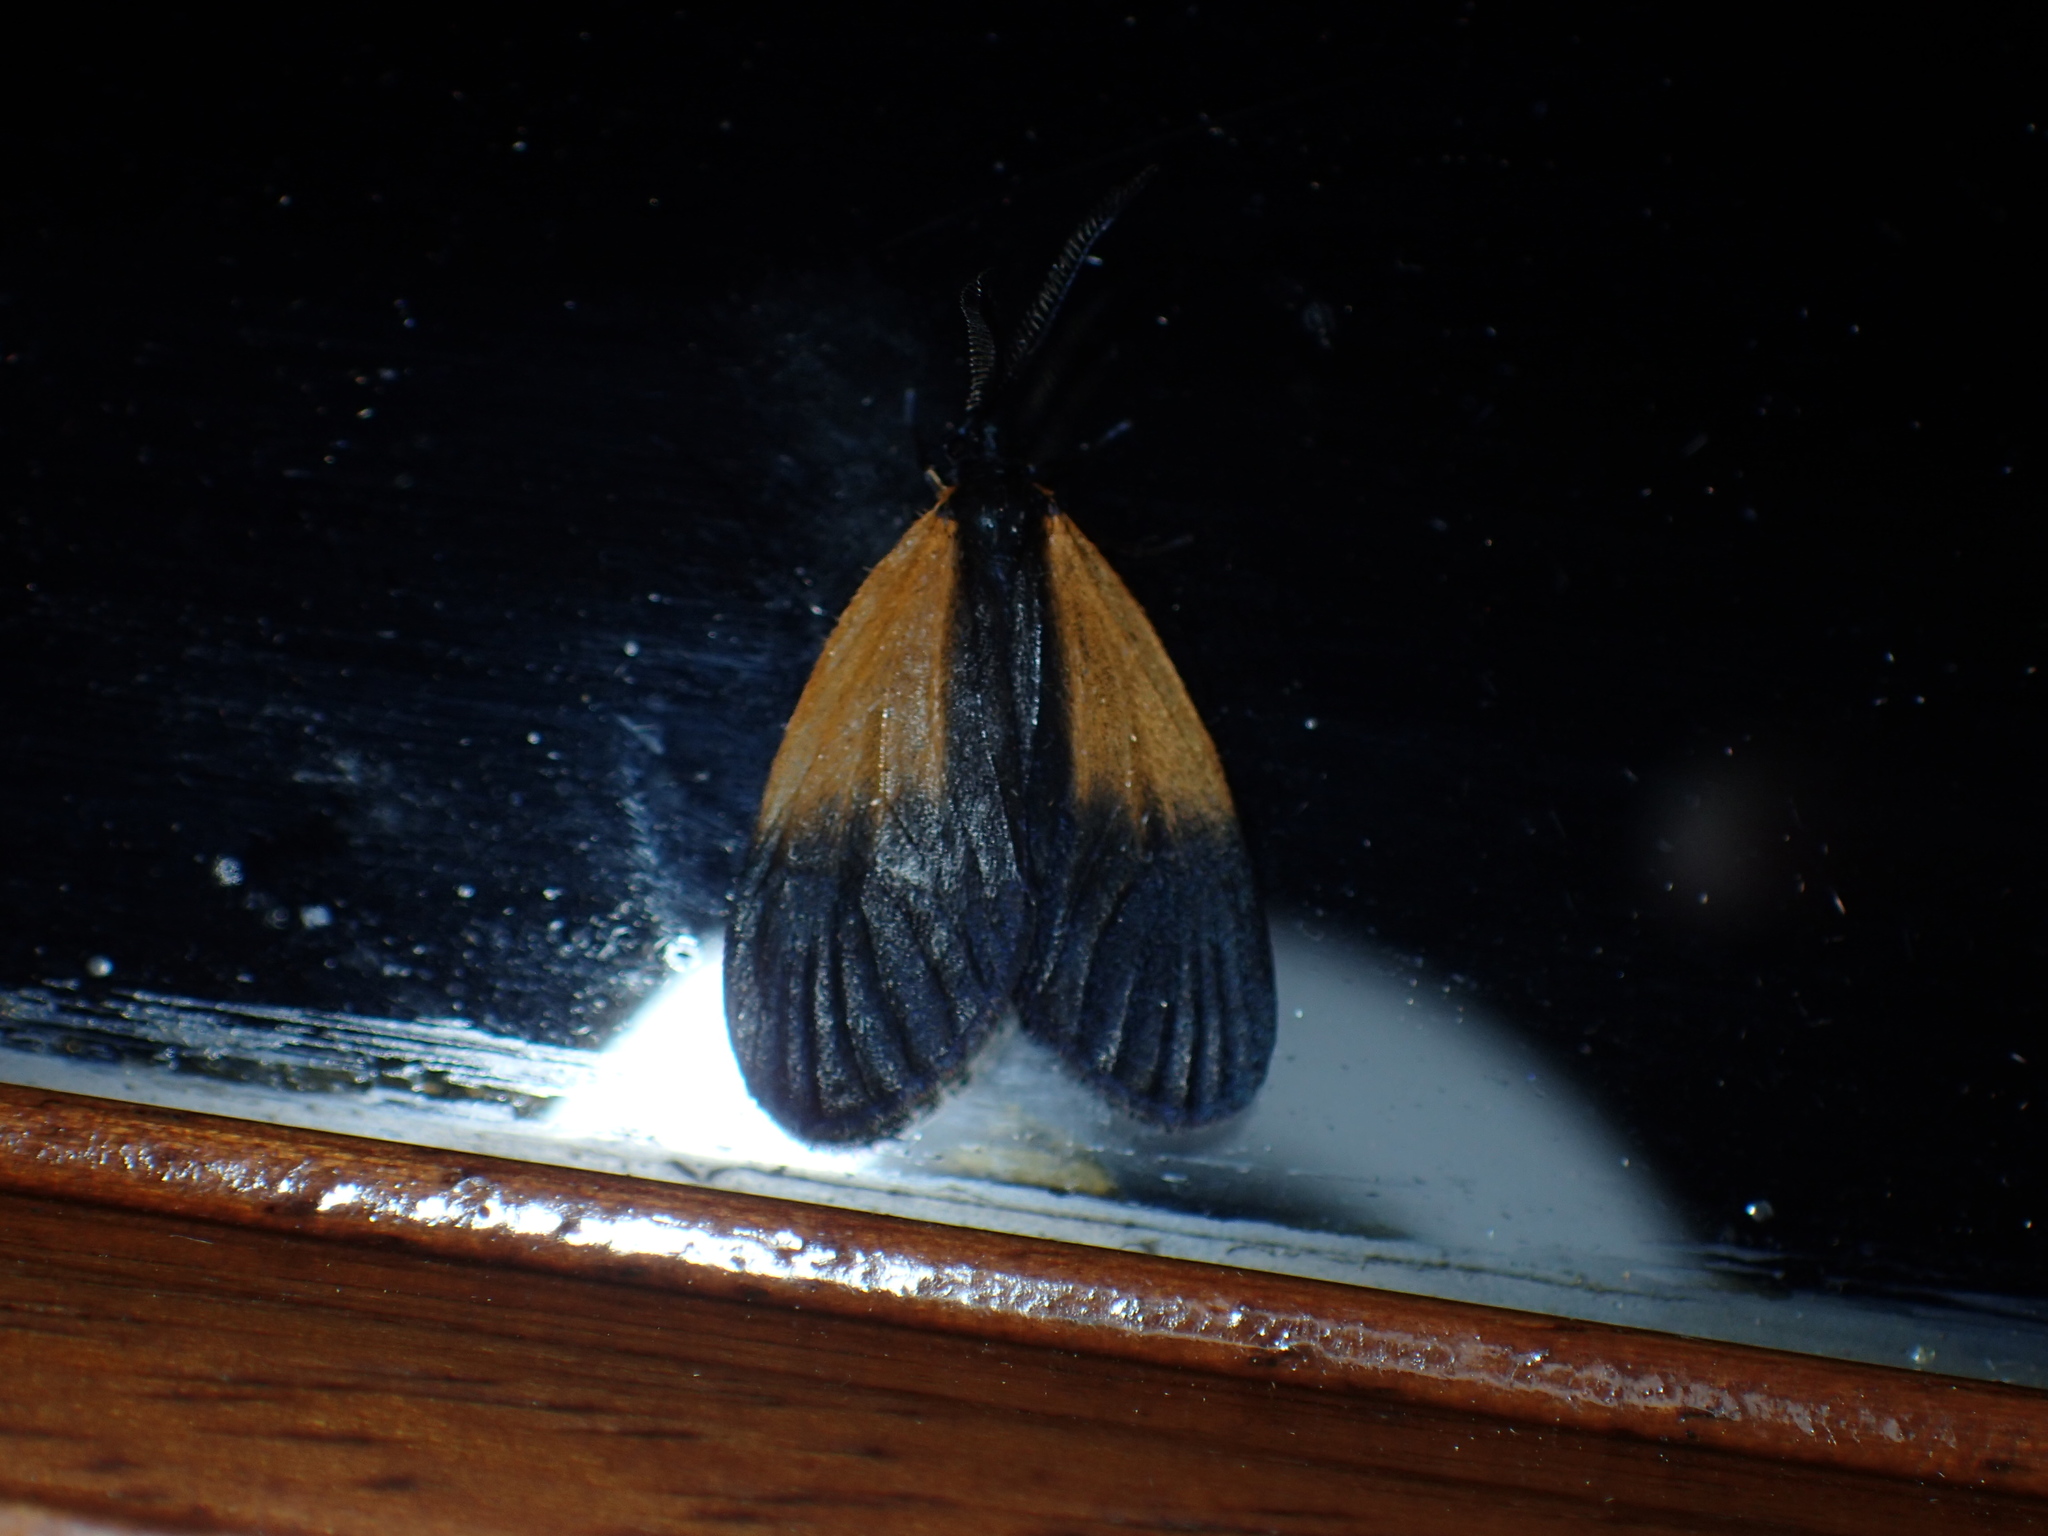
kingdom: Animalia
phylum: Arthropoda
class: Insecta
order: Lepidoptera
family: Zygaenidae
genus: Malthaca
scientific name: Malthaca dimidiata
